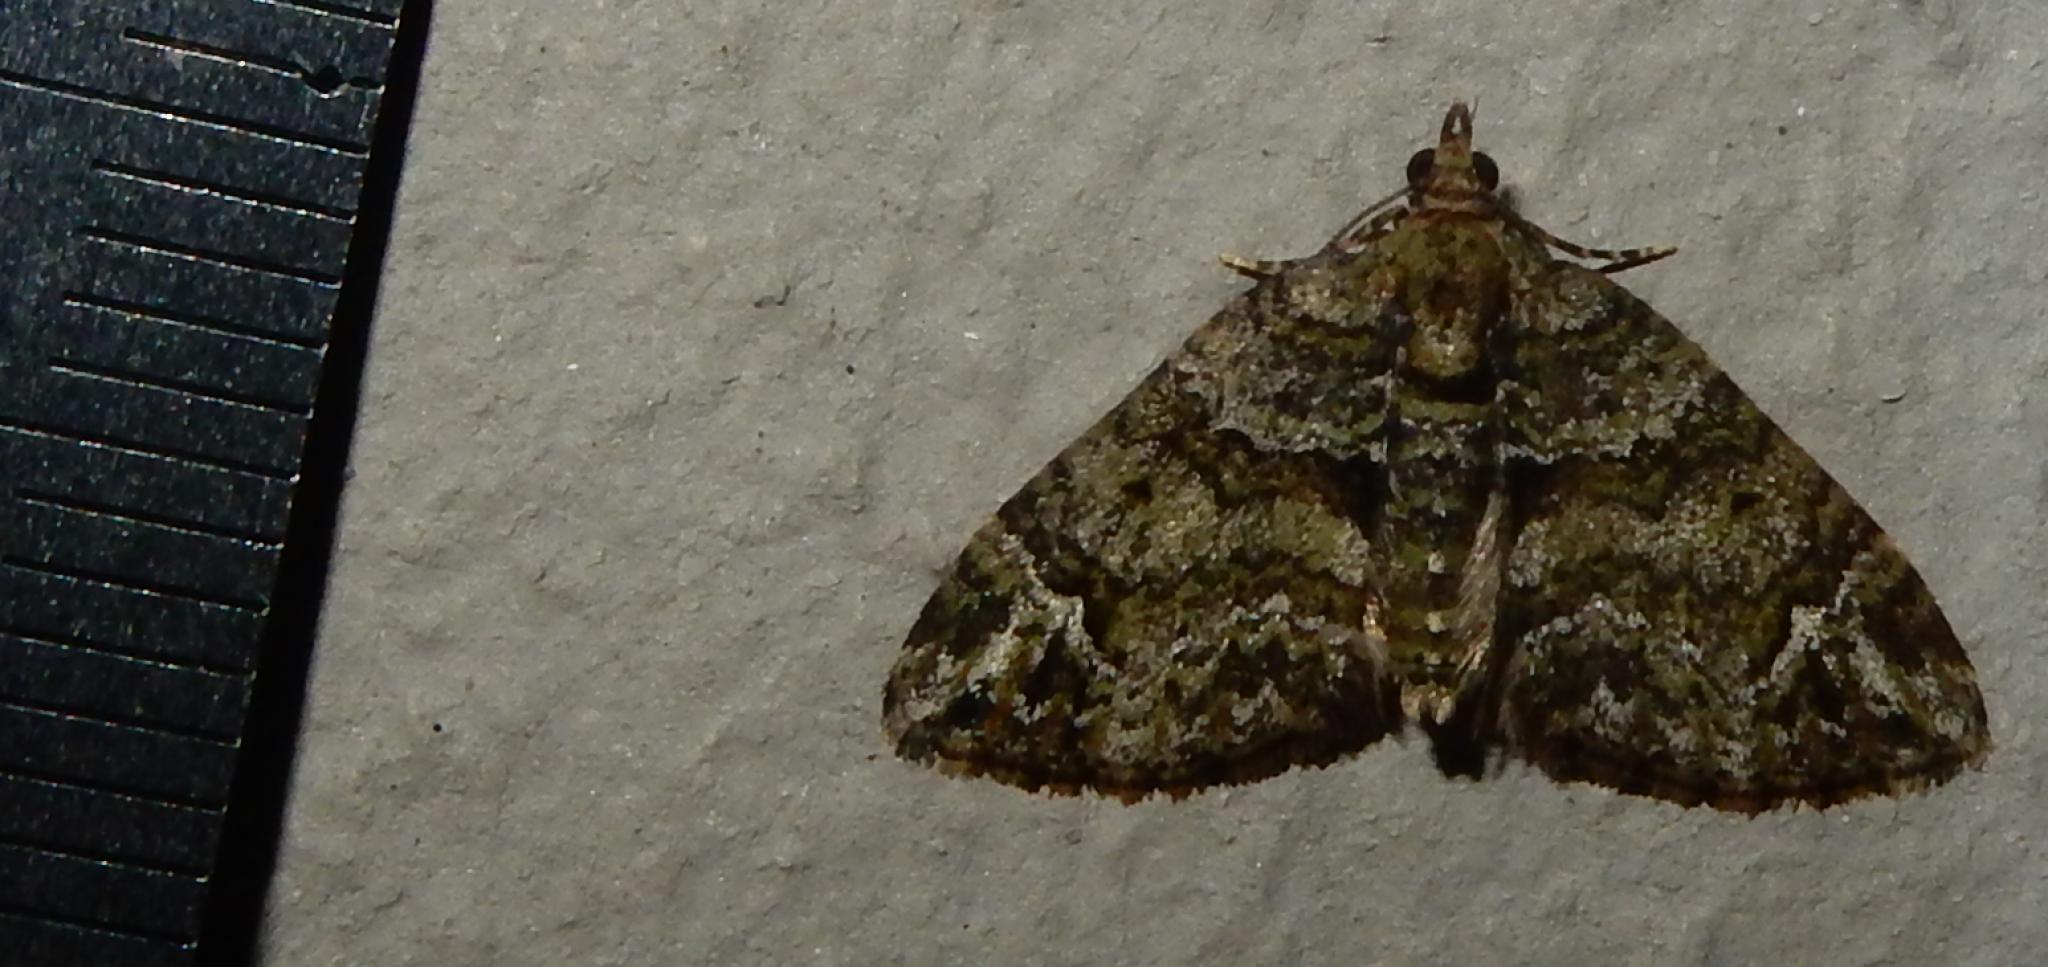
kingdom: Animalia
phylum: Arthropoda
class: Insecta
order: Lepidoptera
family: Geometridae
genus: Piercia
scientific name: Piercia prasinaria
